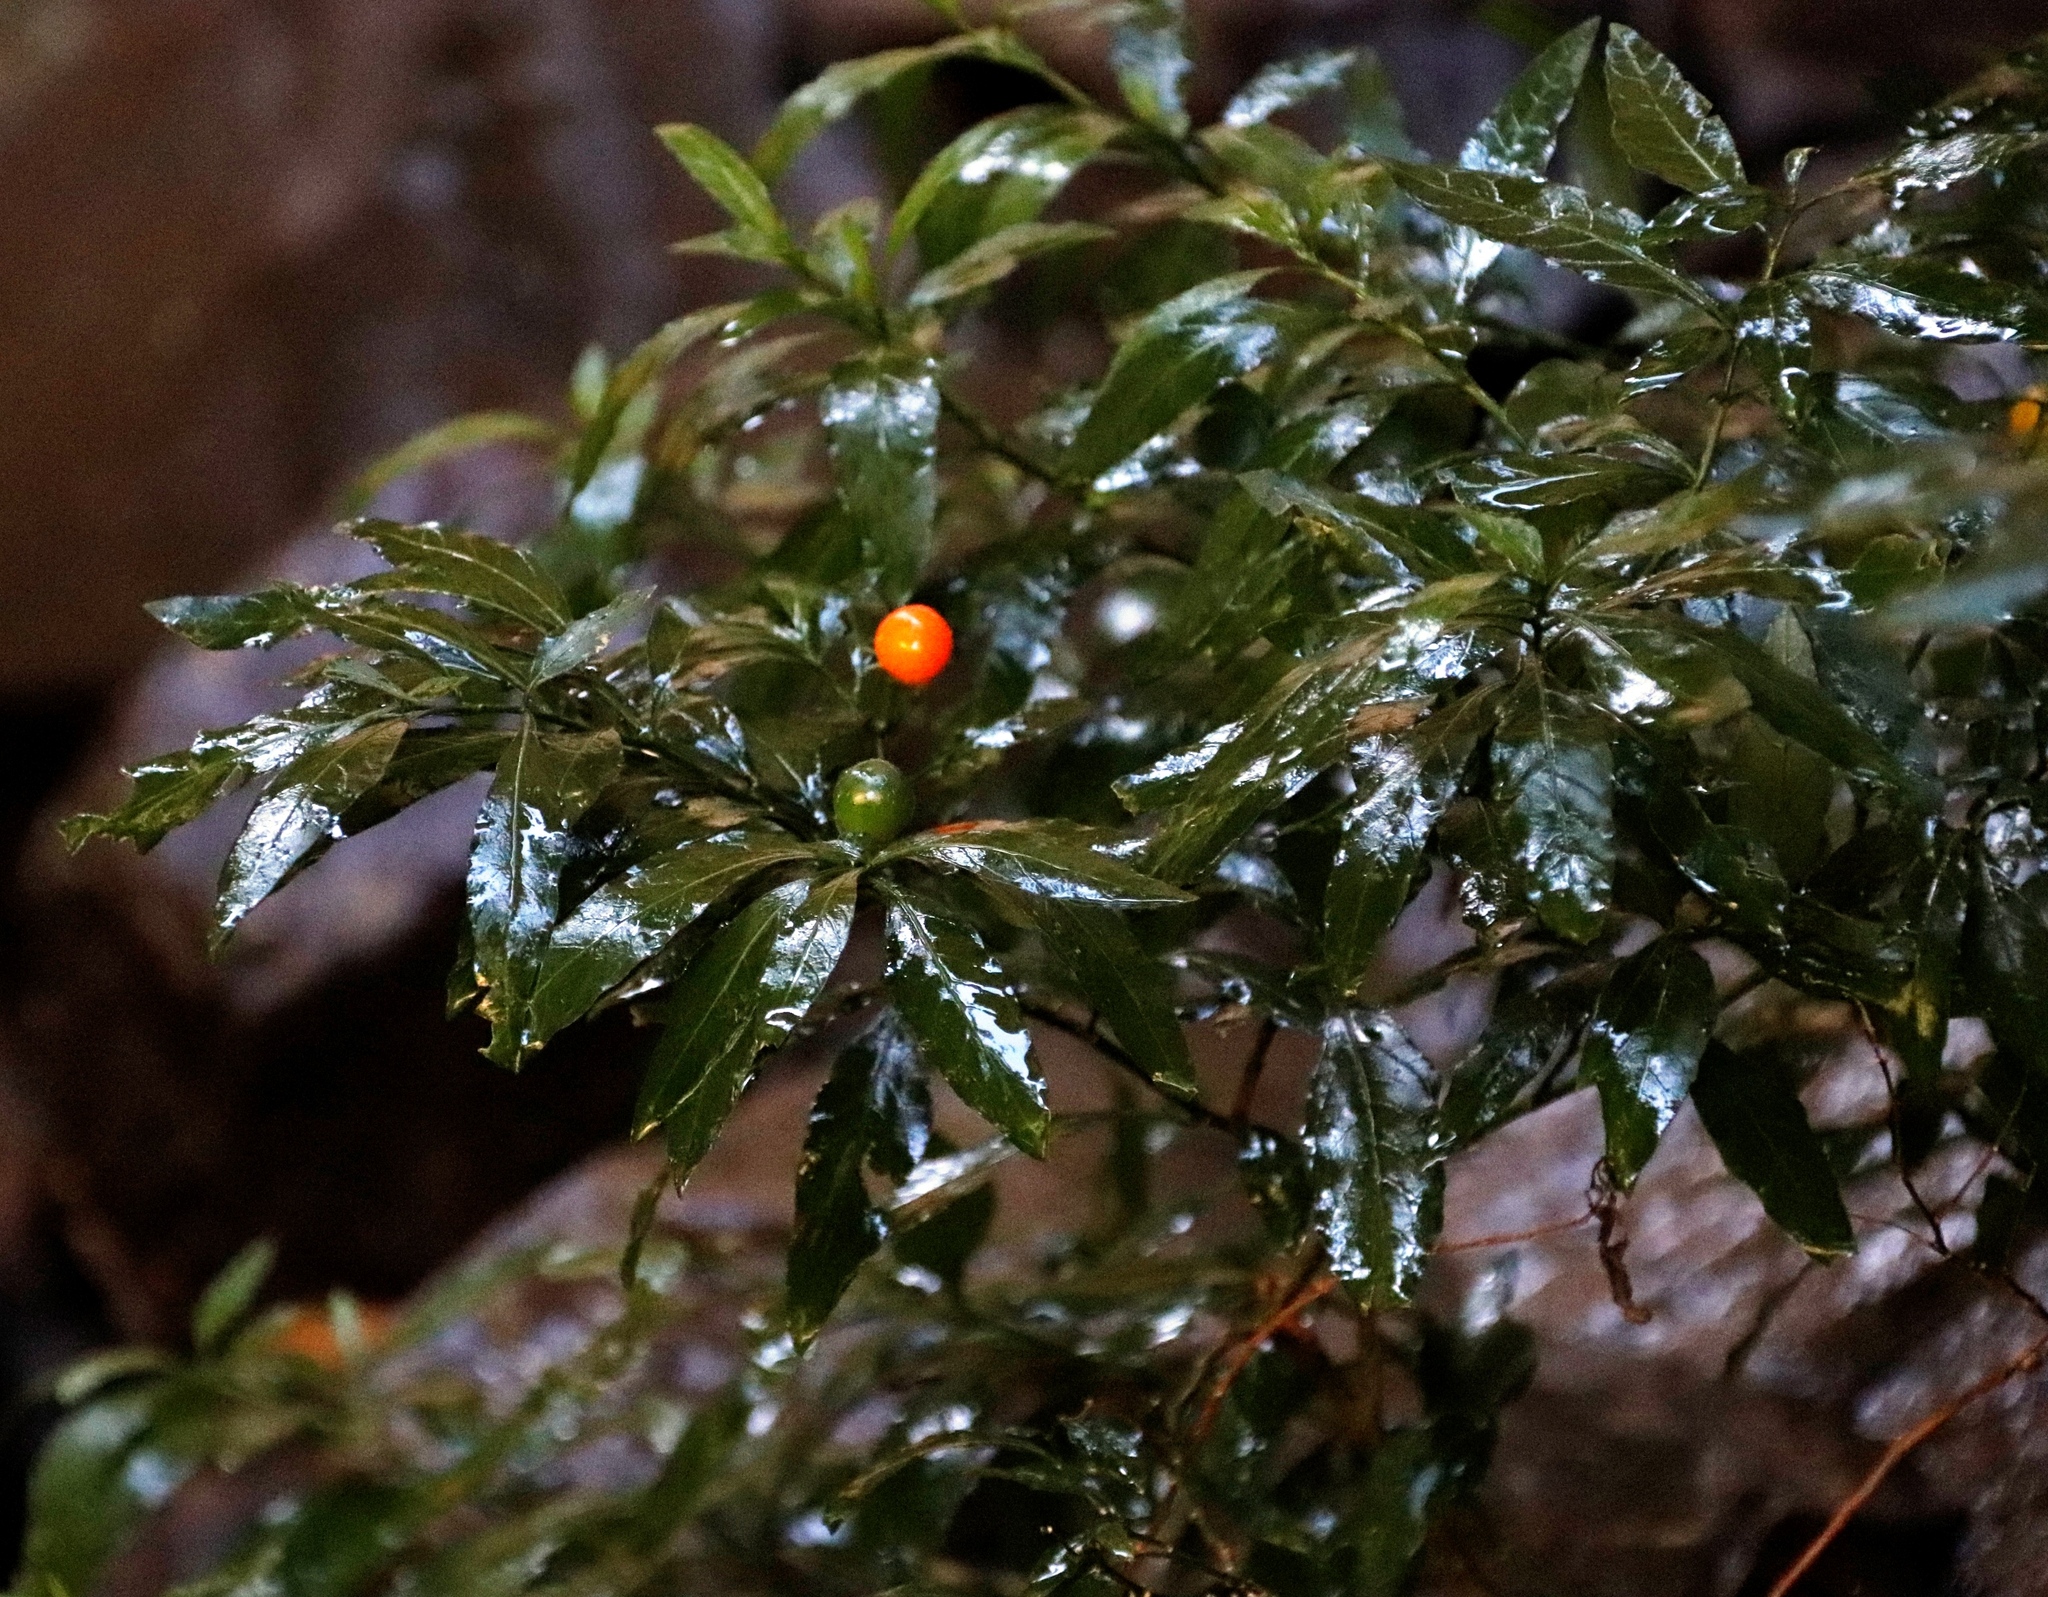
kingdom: Plantae
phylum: Tracheophyta
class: Magnoliopsida
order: Solanales
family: Solanaceae
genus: Solanum
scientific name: Solanum pseudocapsicum
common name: Jerusalem cherry
